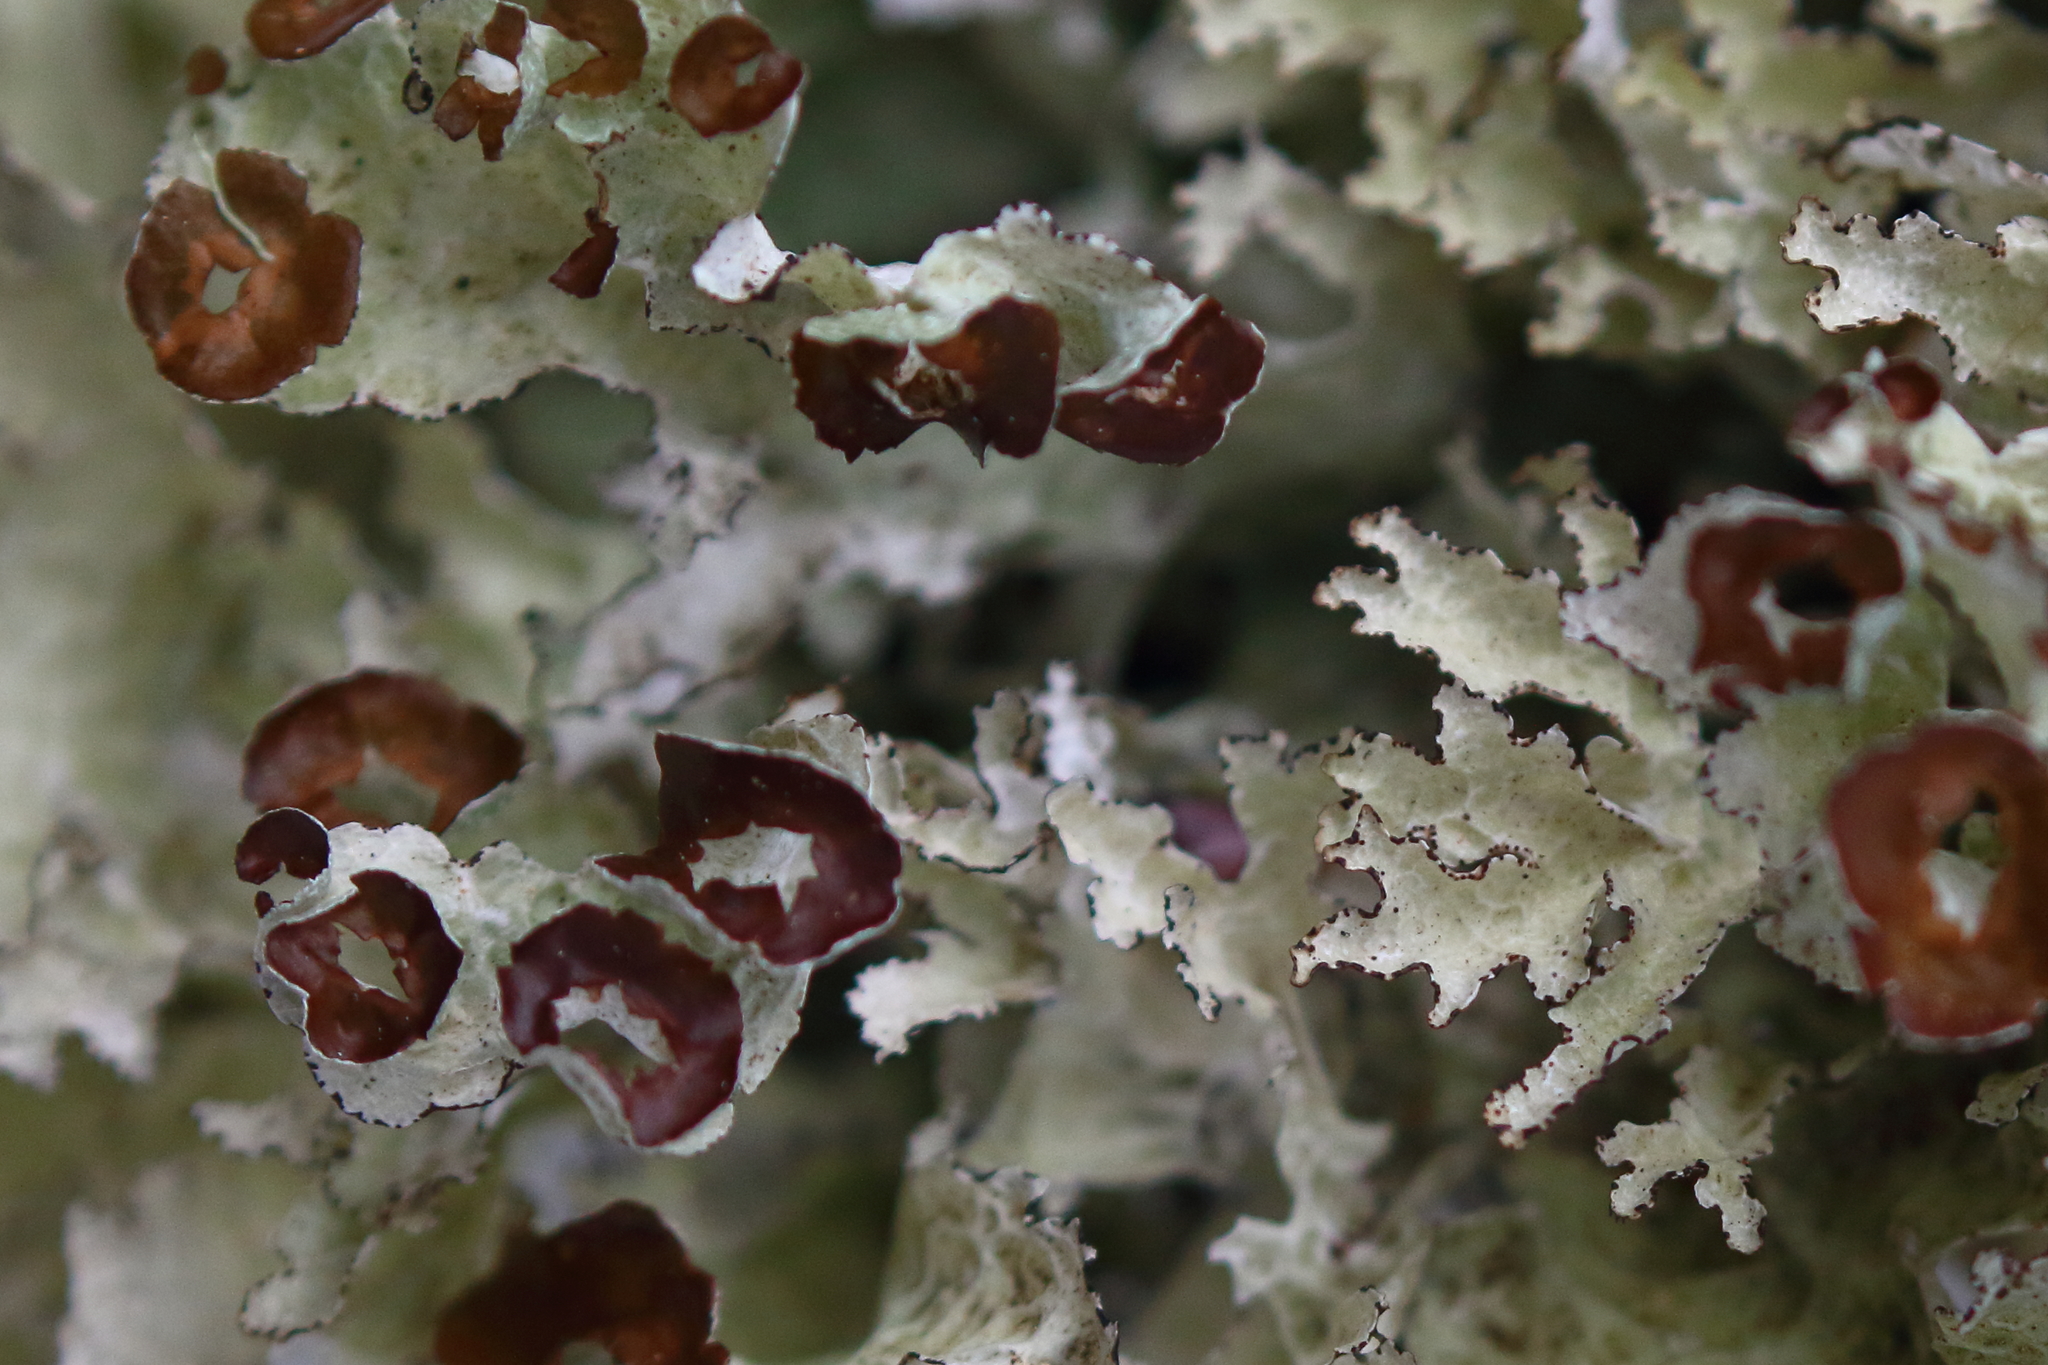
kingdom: Fungi
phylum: Ascomycota
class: Lecanoromycetes
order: Lecanorales
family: Parmeliaceae
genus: Platismatia
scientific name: Platismatia tuckermanii
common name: Crumpled rag lichen
